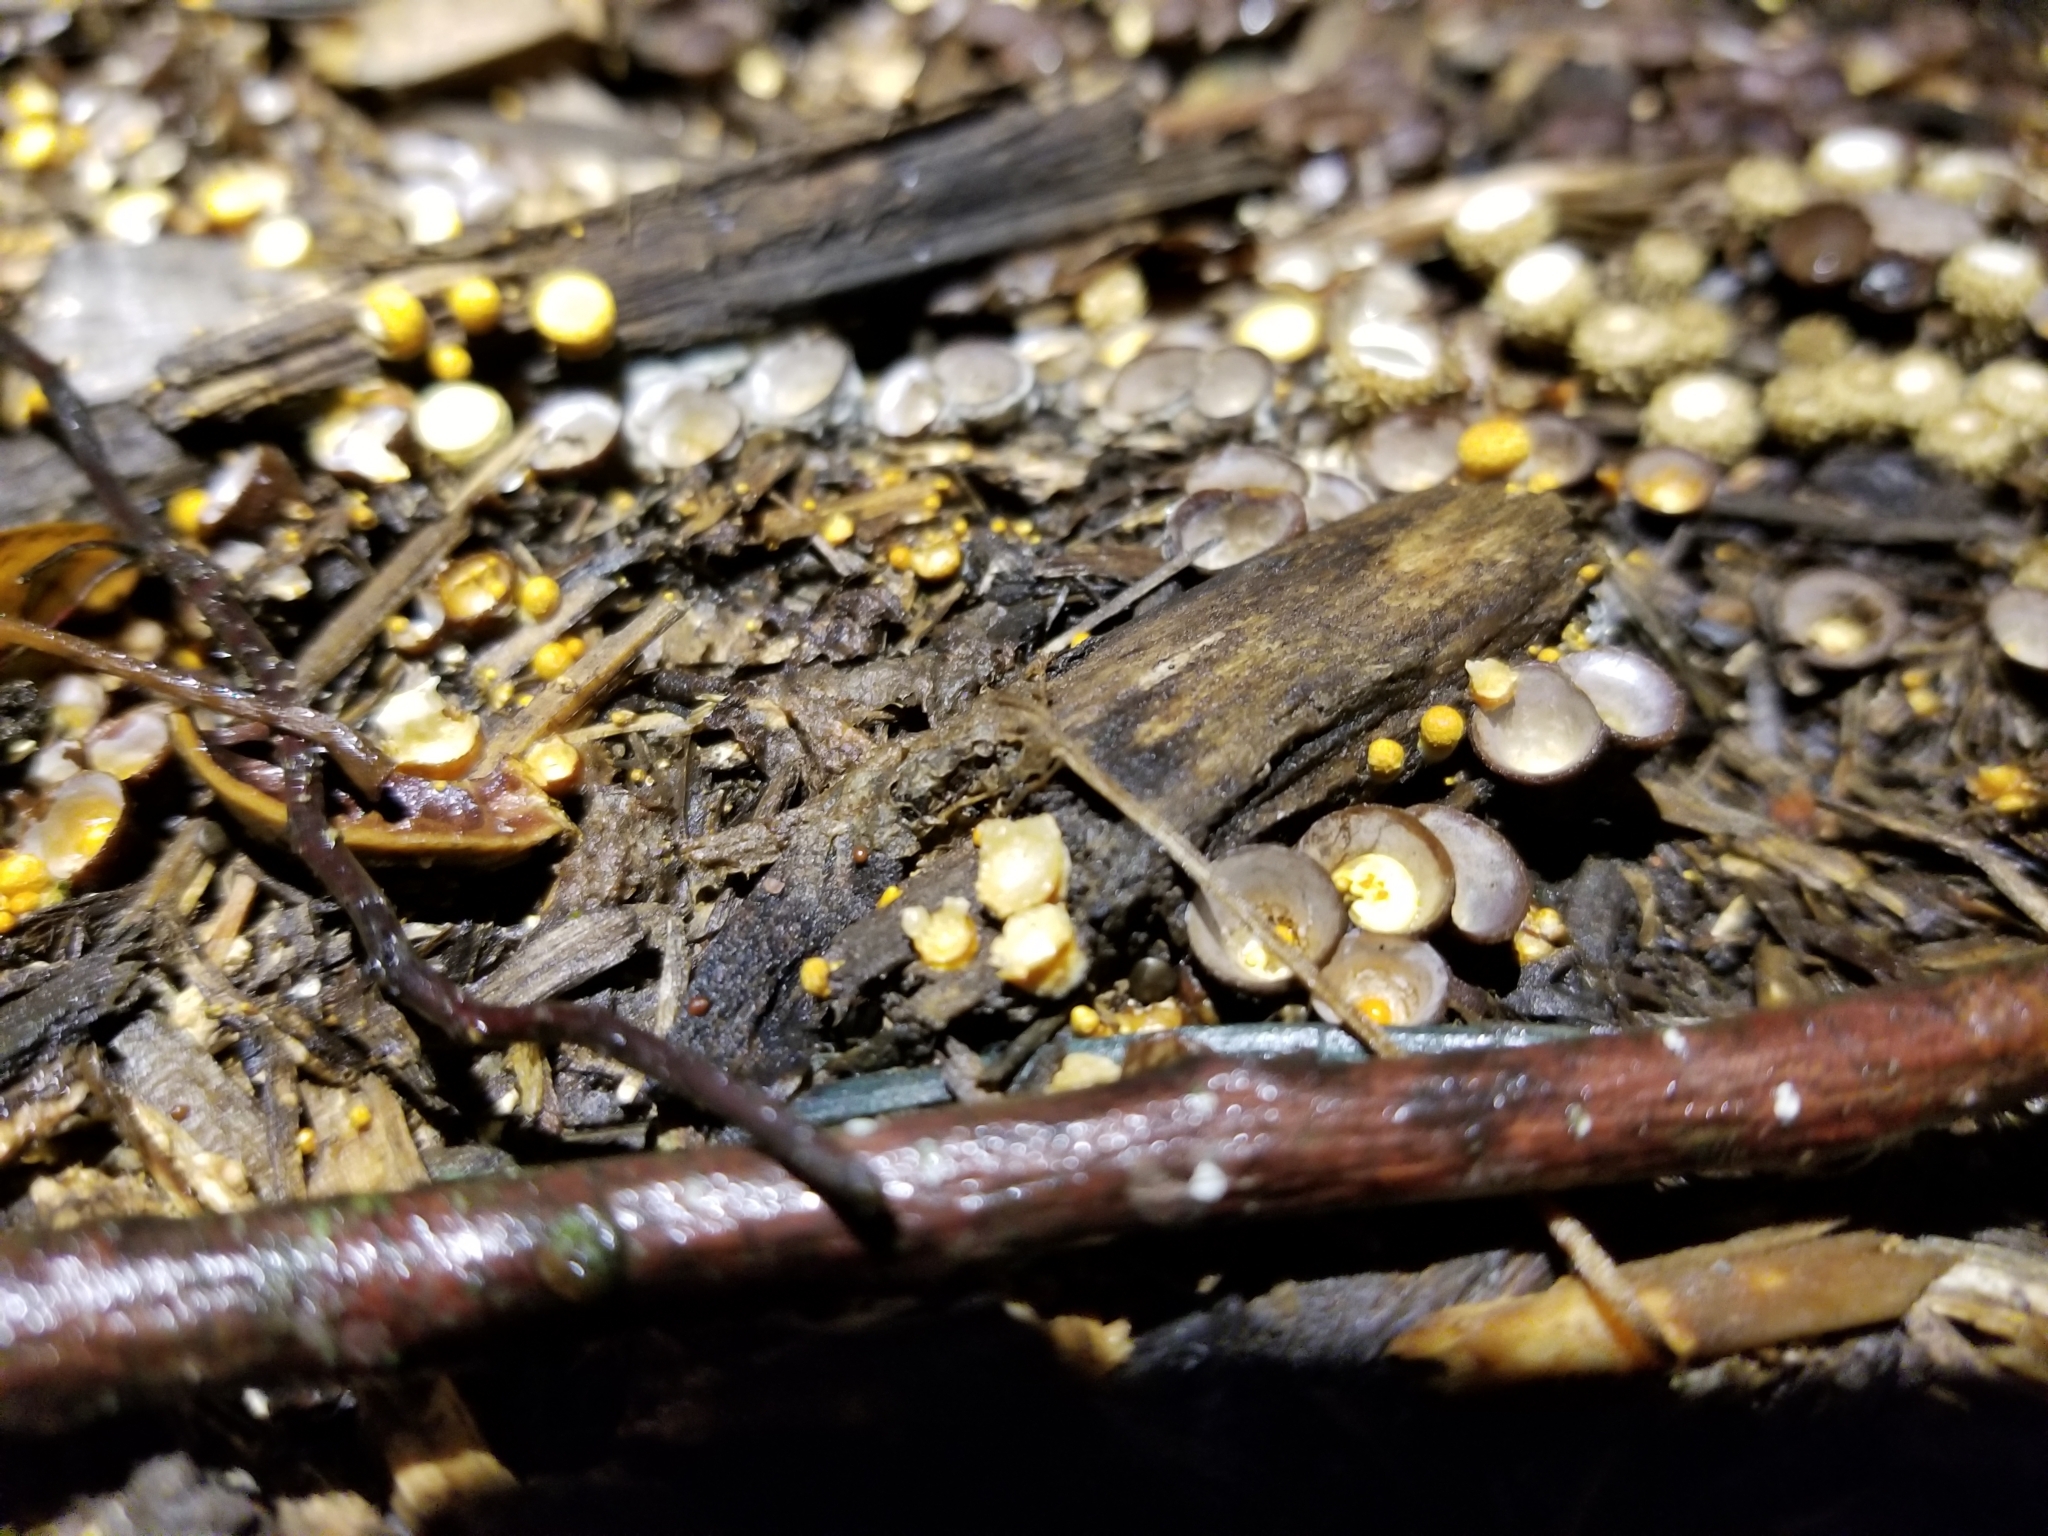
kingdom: Fungi
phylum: Basidiomycota
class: Agaricomycetes
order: Agaricales
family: Nidulariaceae
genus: Crucibulum
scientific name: Crucibulum laeve
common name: Common bird's nest
